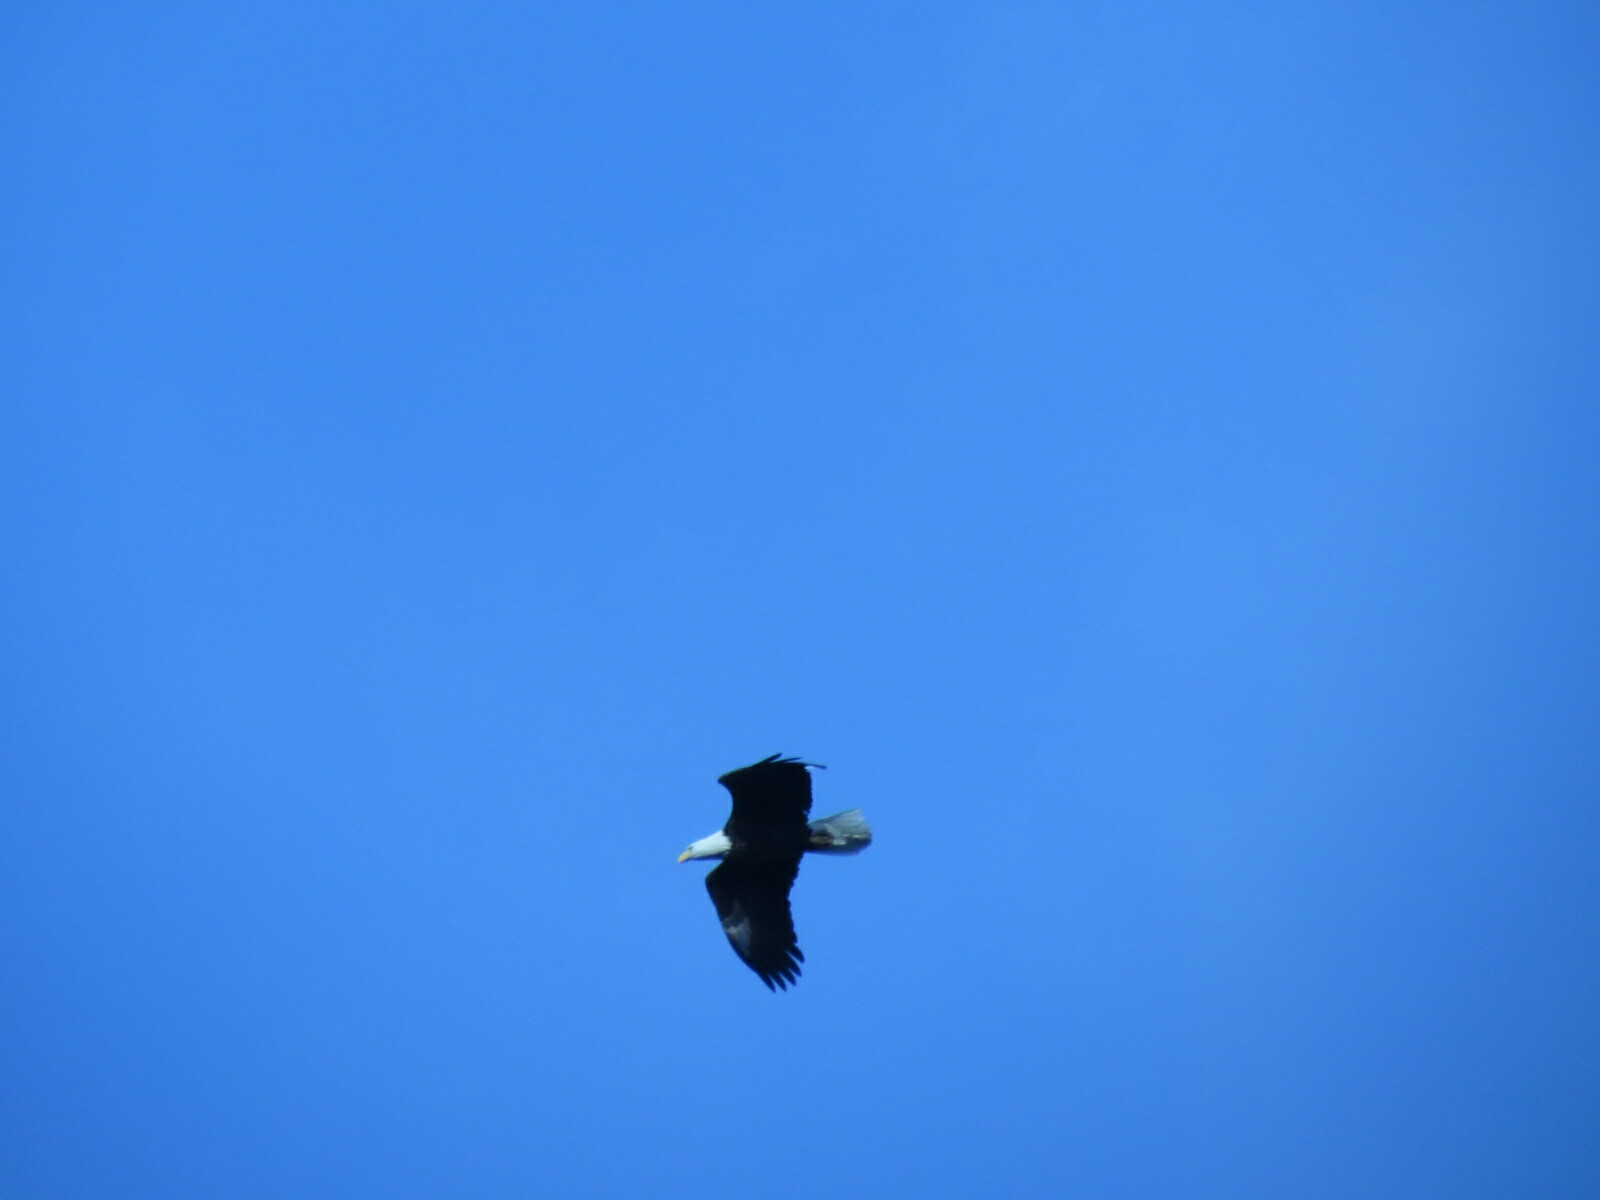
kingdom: Animalia
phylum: Chordata
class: Aves
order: Accipitriformes
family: Accipitridae
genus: Haliaeetus
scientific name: Haliaeetus leucocephalus
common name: Bald eagle
